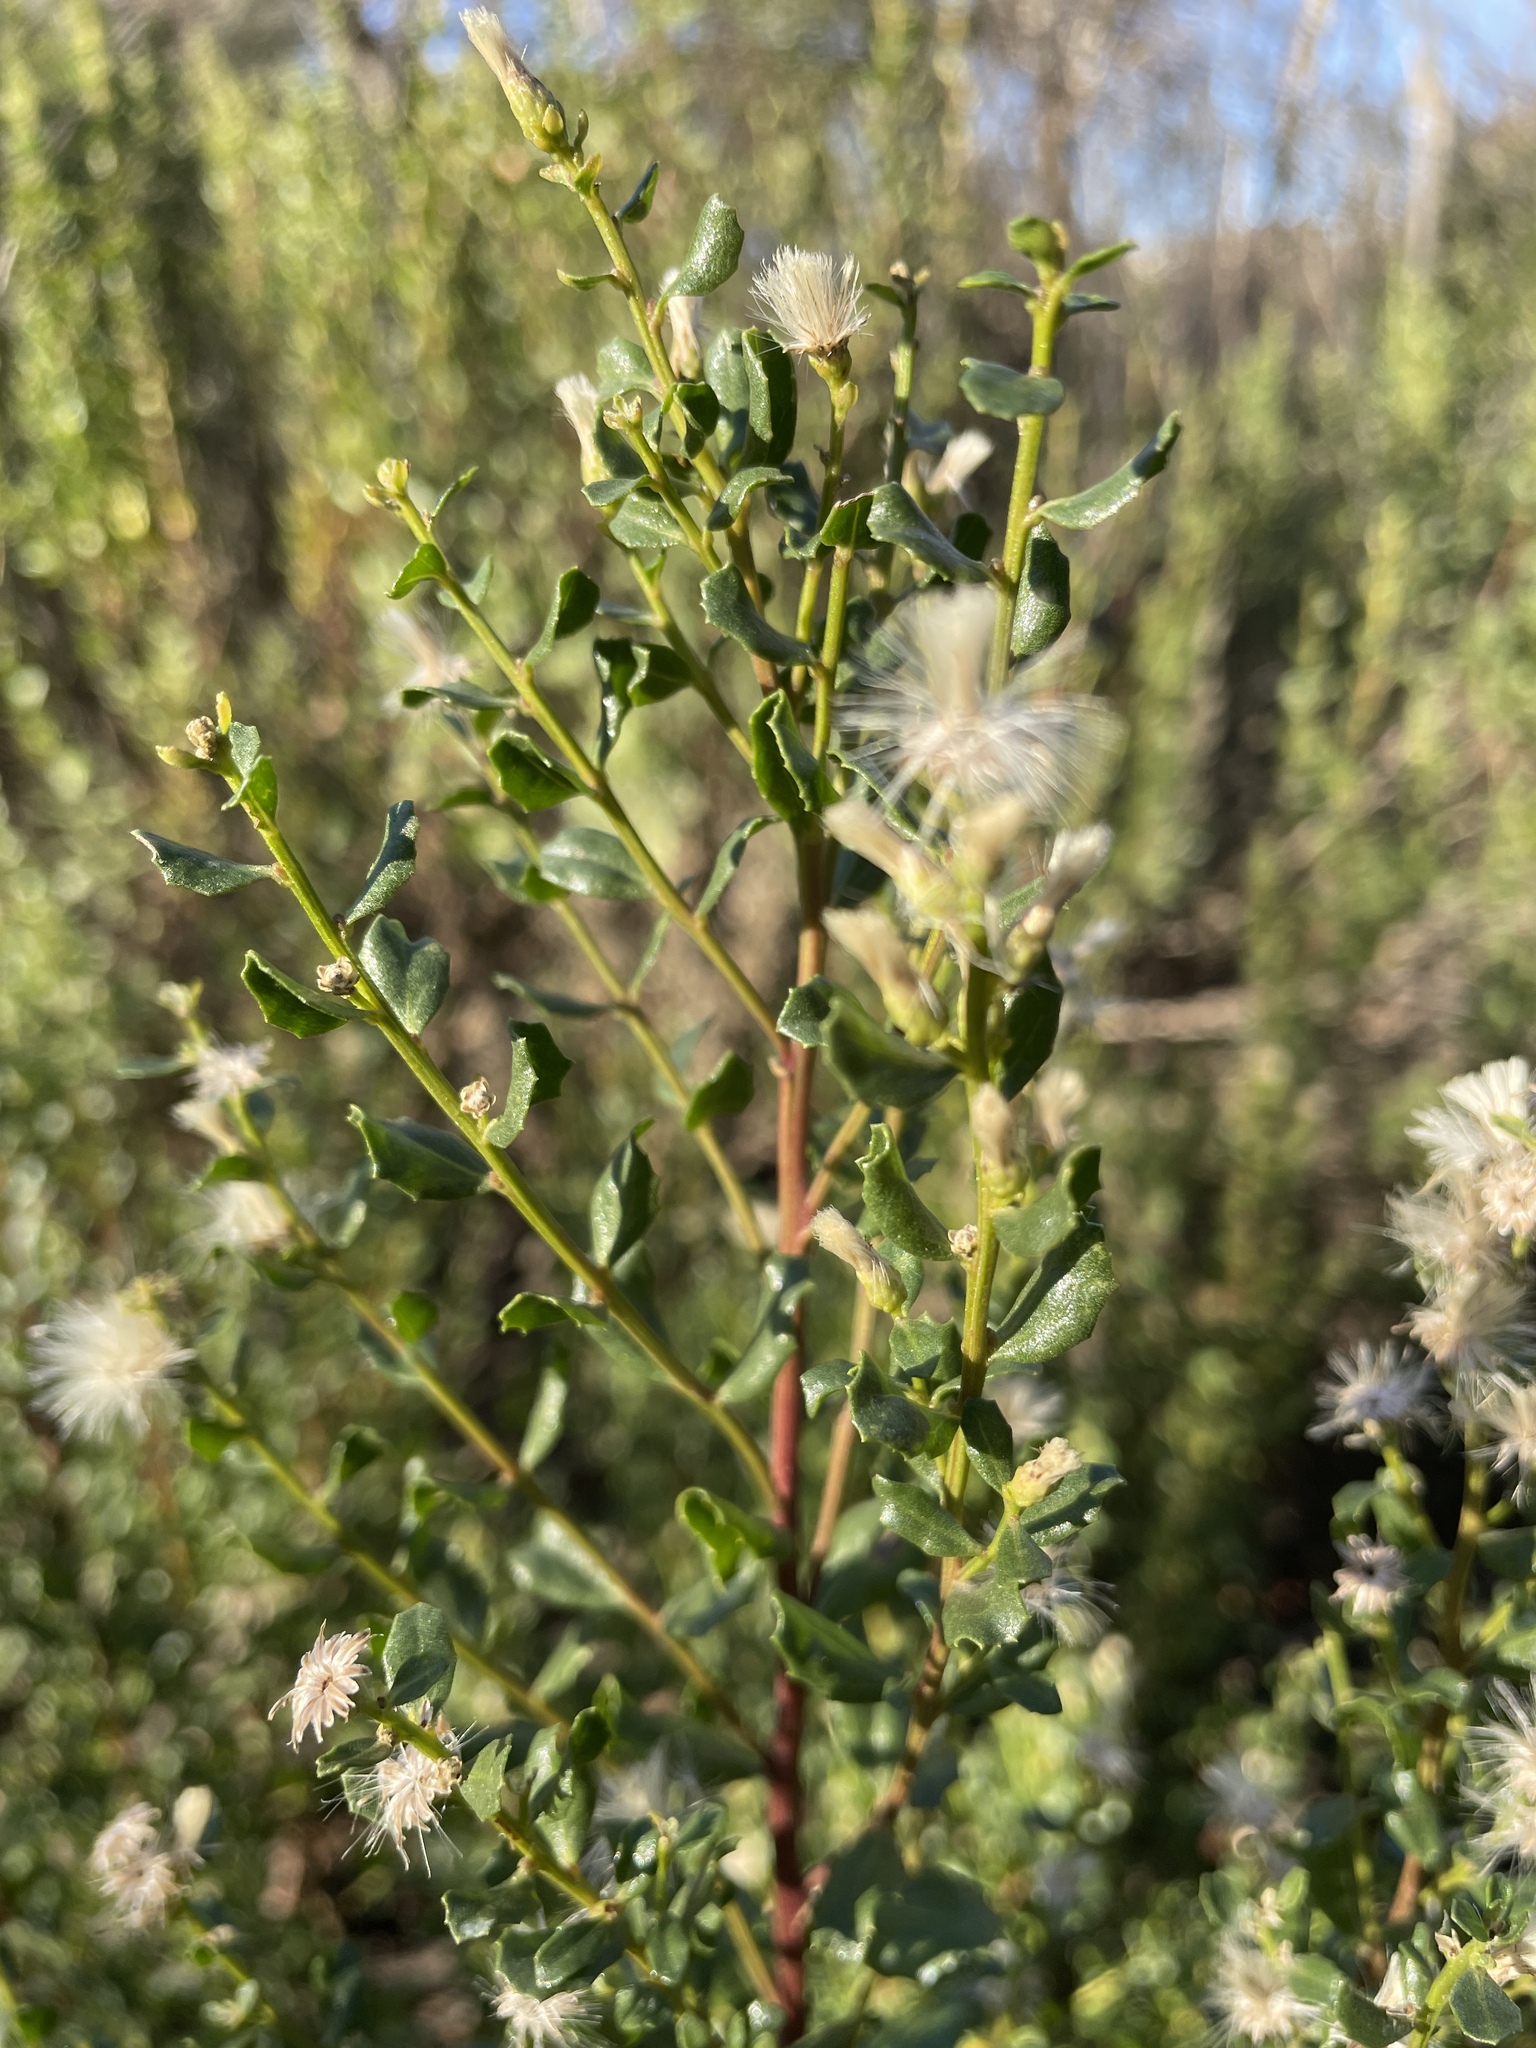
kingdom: Plantae
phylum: Tracheophyta
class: Magnoliopsida
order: Asterales
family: Asteraceae
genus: Baccharis
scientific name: Baccharis pilularis
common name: Coyotebrush
